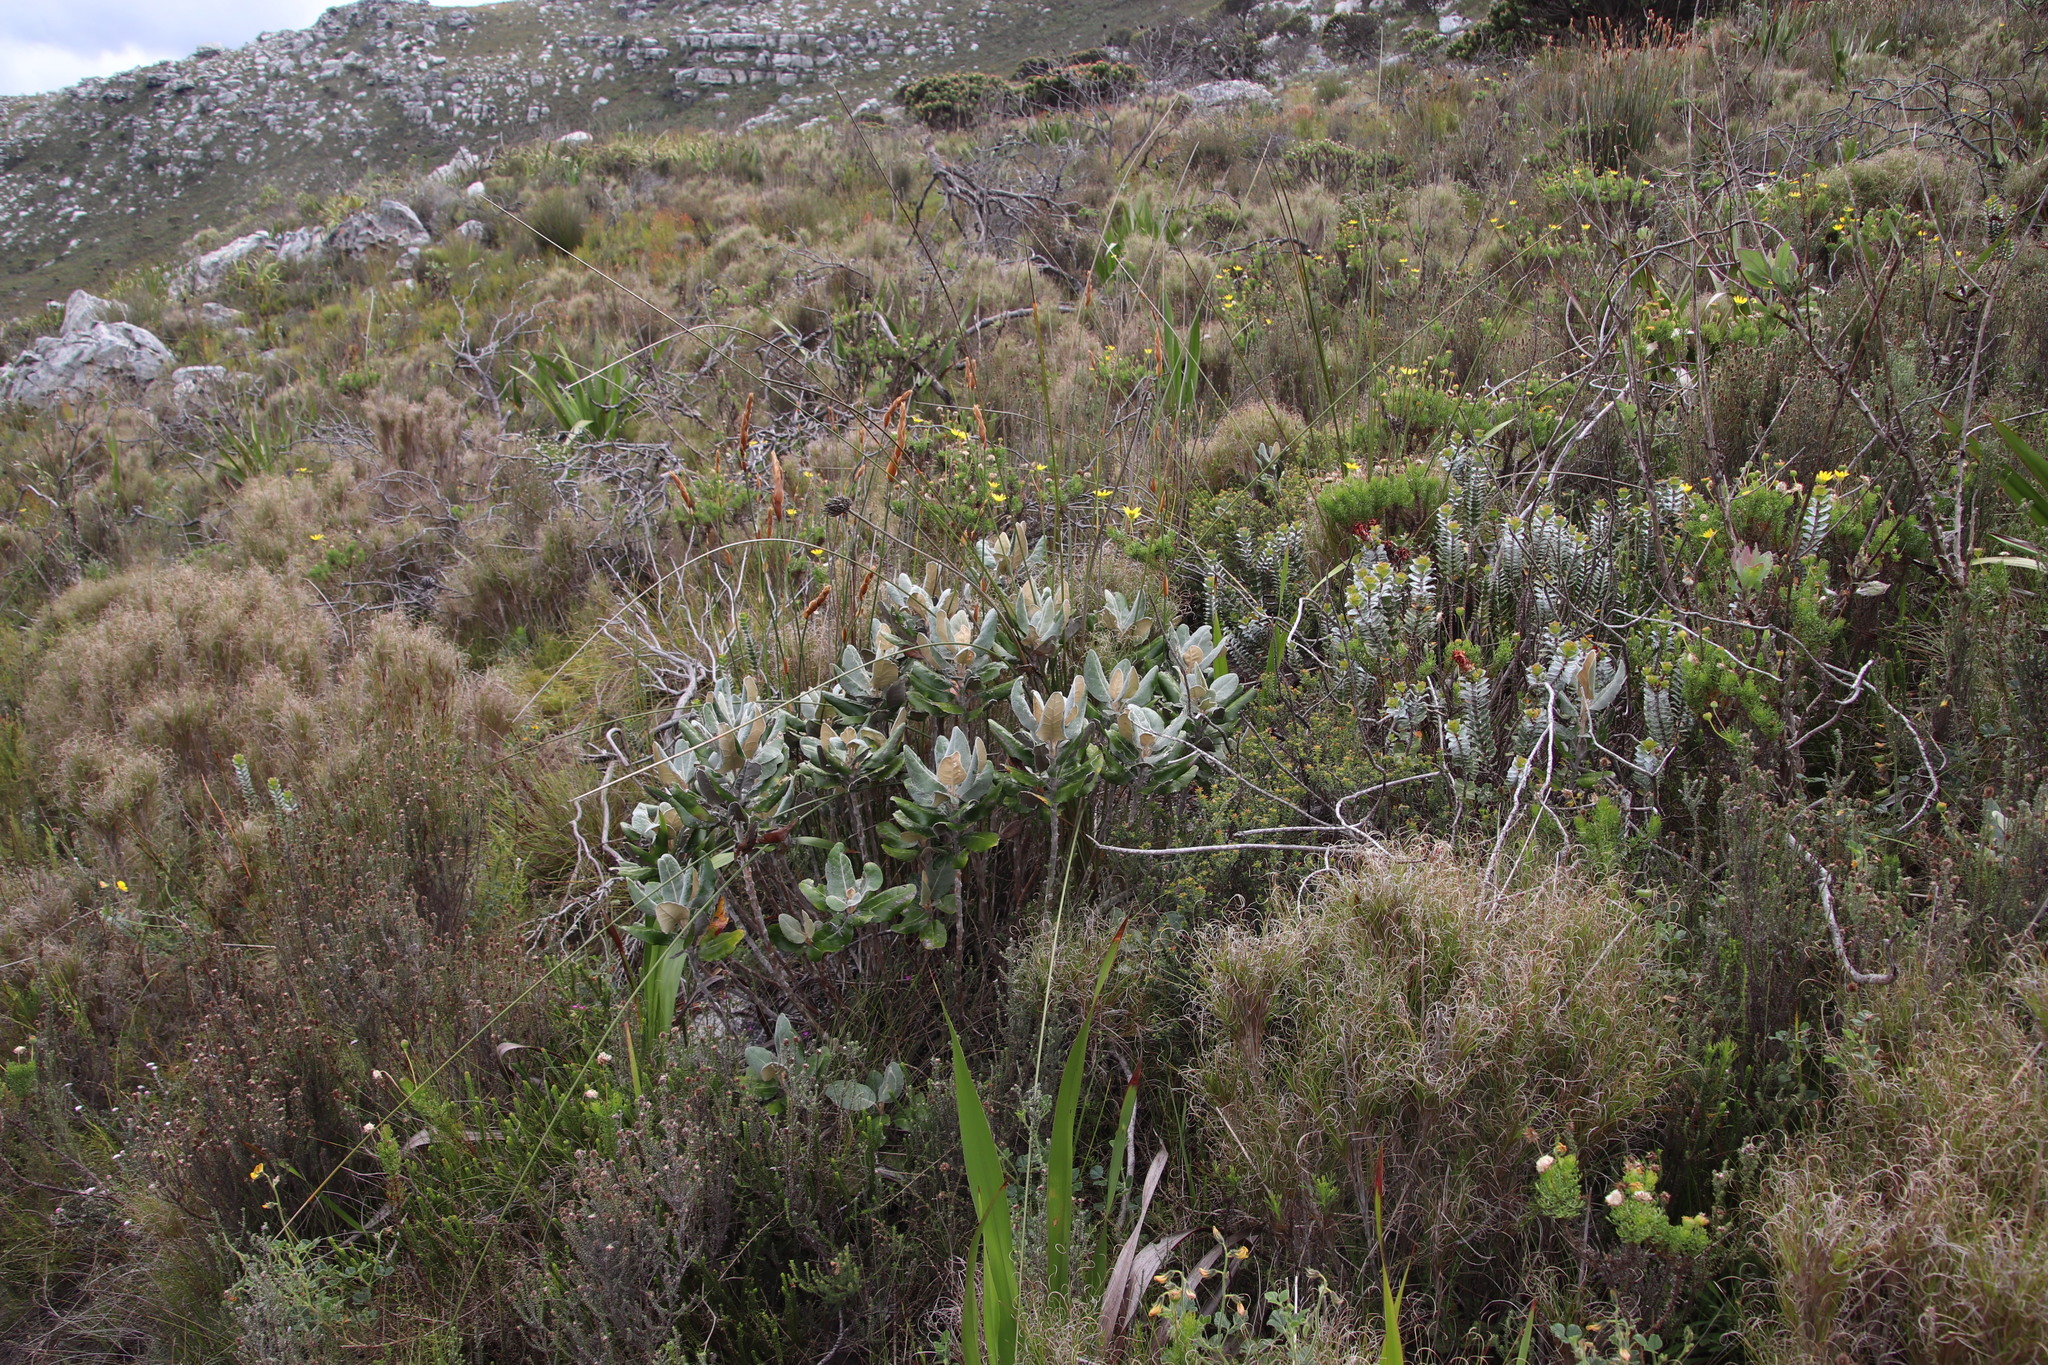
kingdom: Plantae
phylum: Tracheophyta
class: Magnoliopsida
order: Apiales
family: Apiaceae
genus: Hermas
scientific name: Hermas villosa
